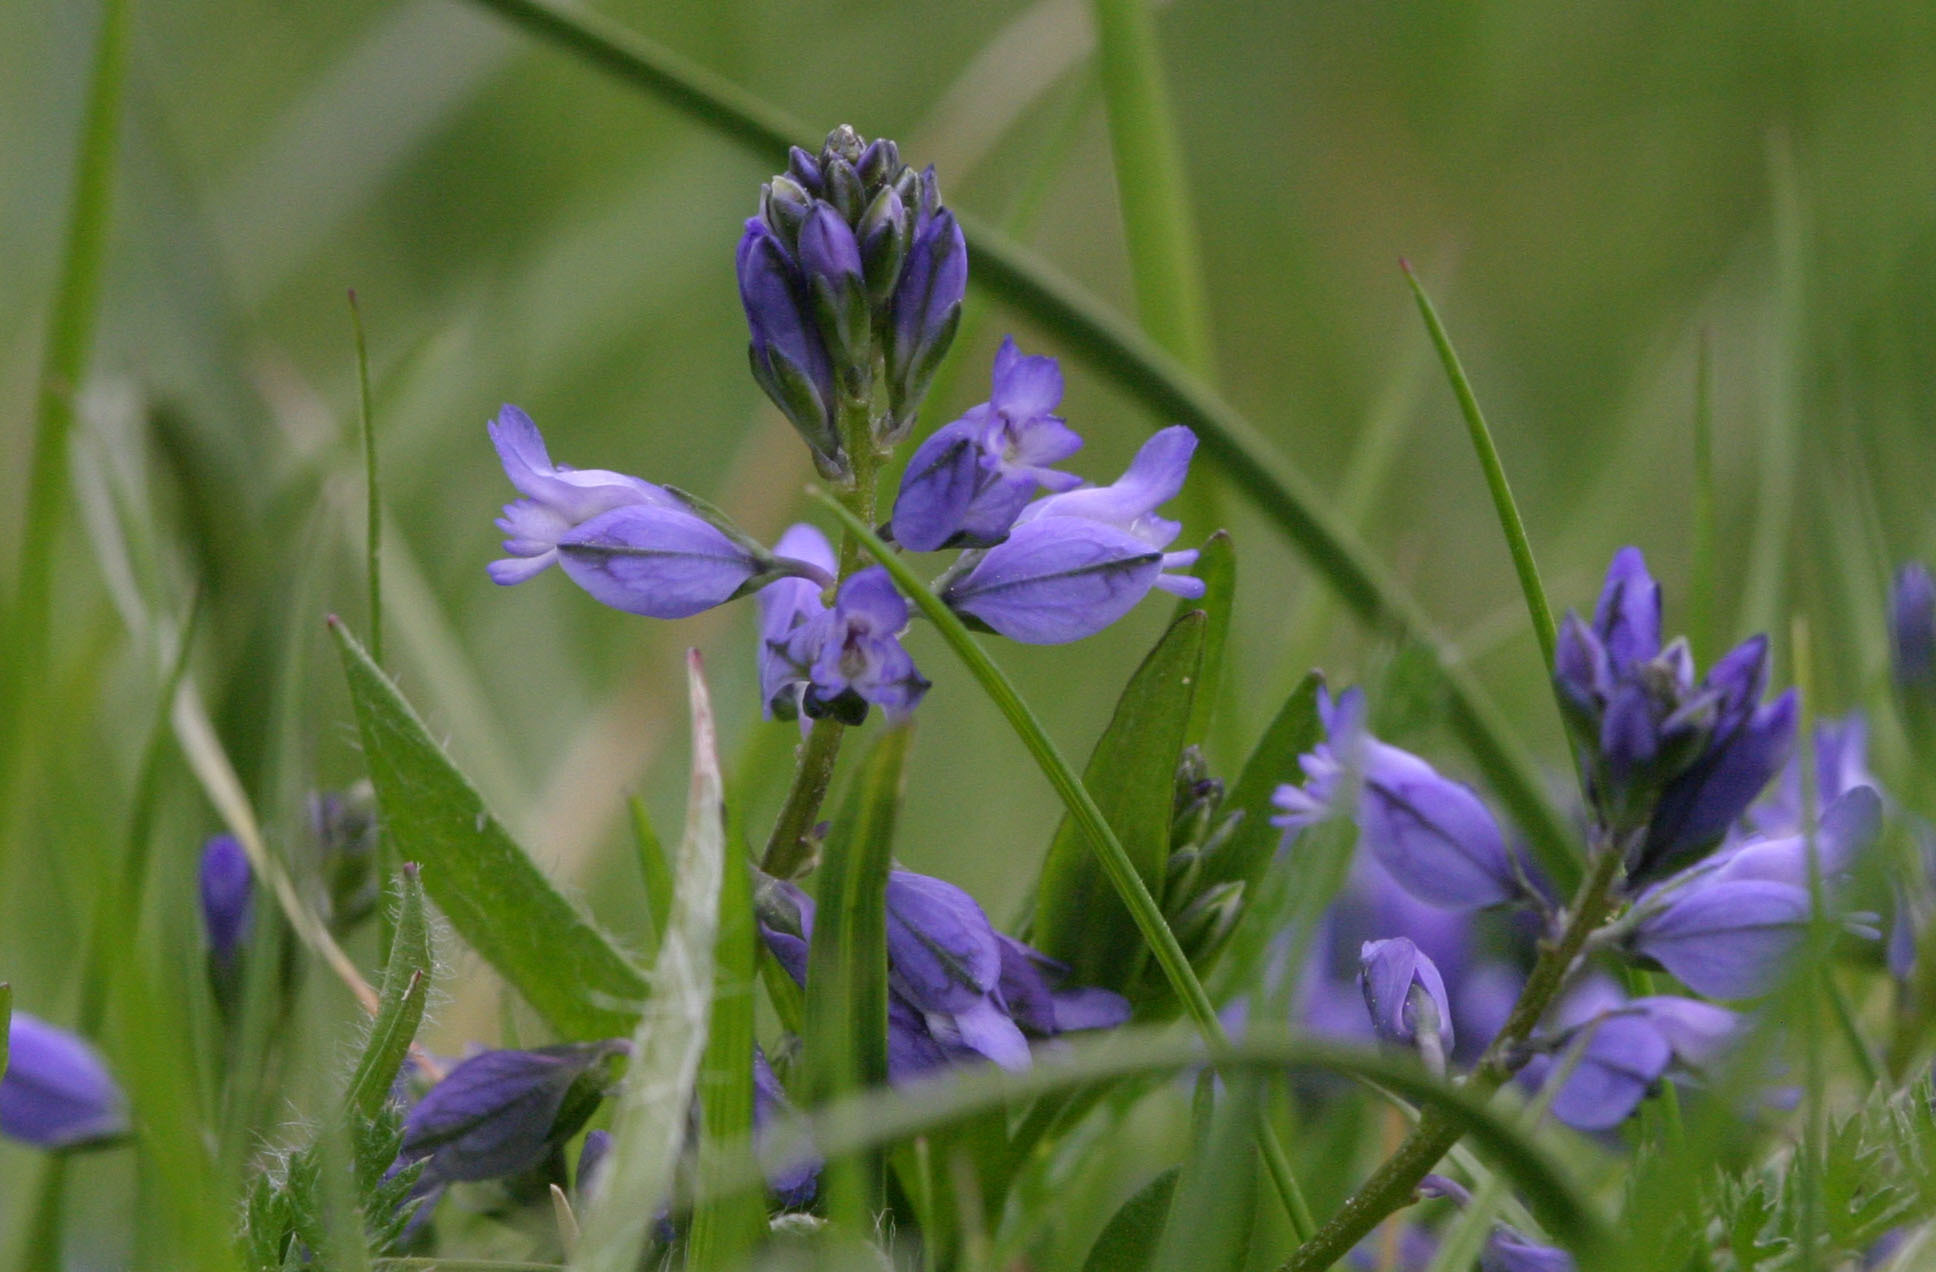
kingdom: Plantae
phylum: Tracheophyta
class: Magnoliopsida
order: Fabales
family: Polygalaceae
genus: Polygala
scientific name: Polygala vulgaris
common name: Common milkwort
